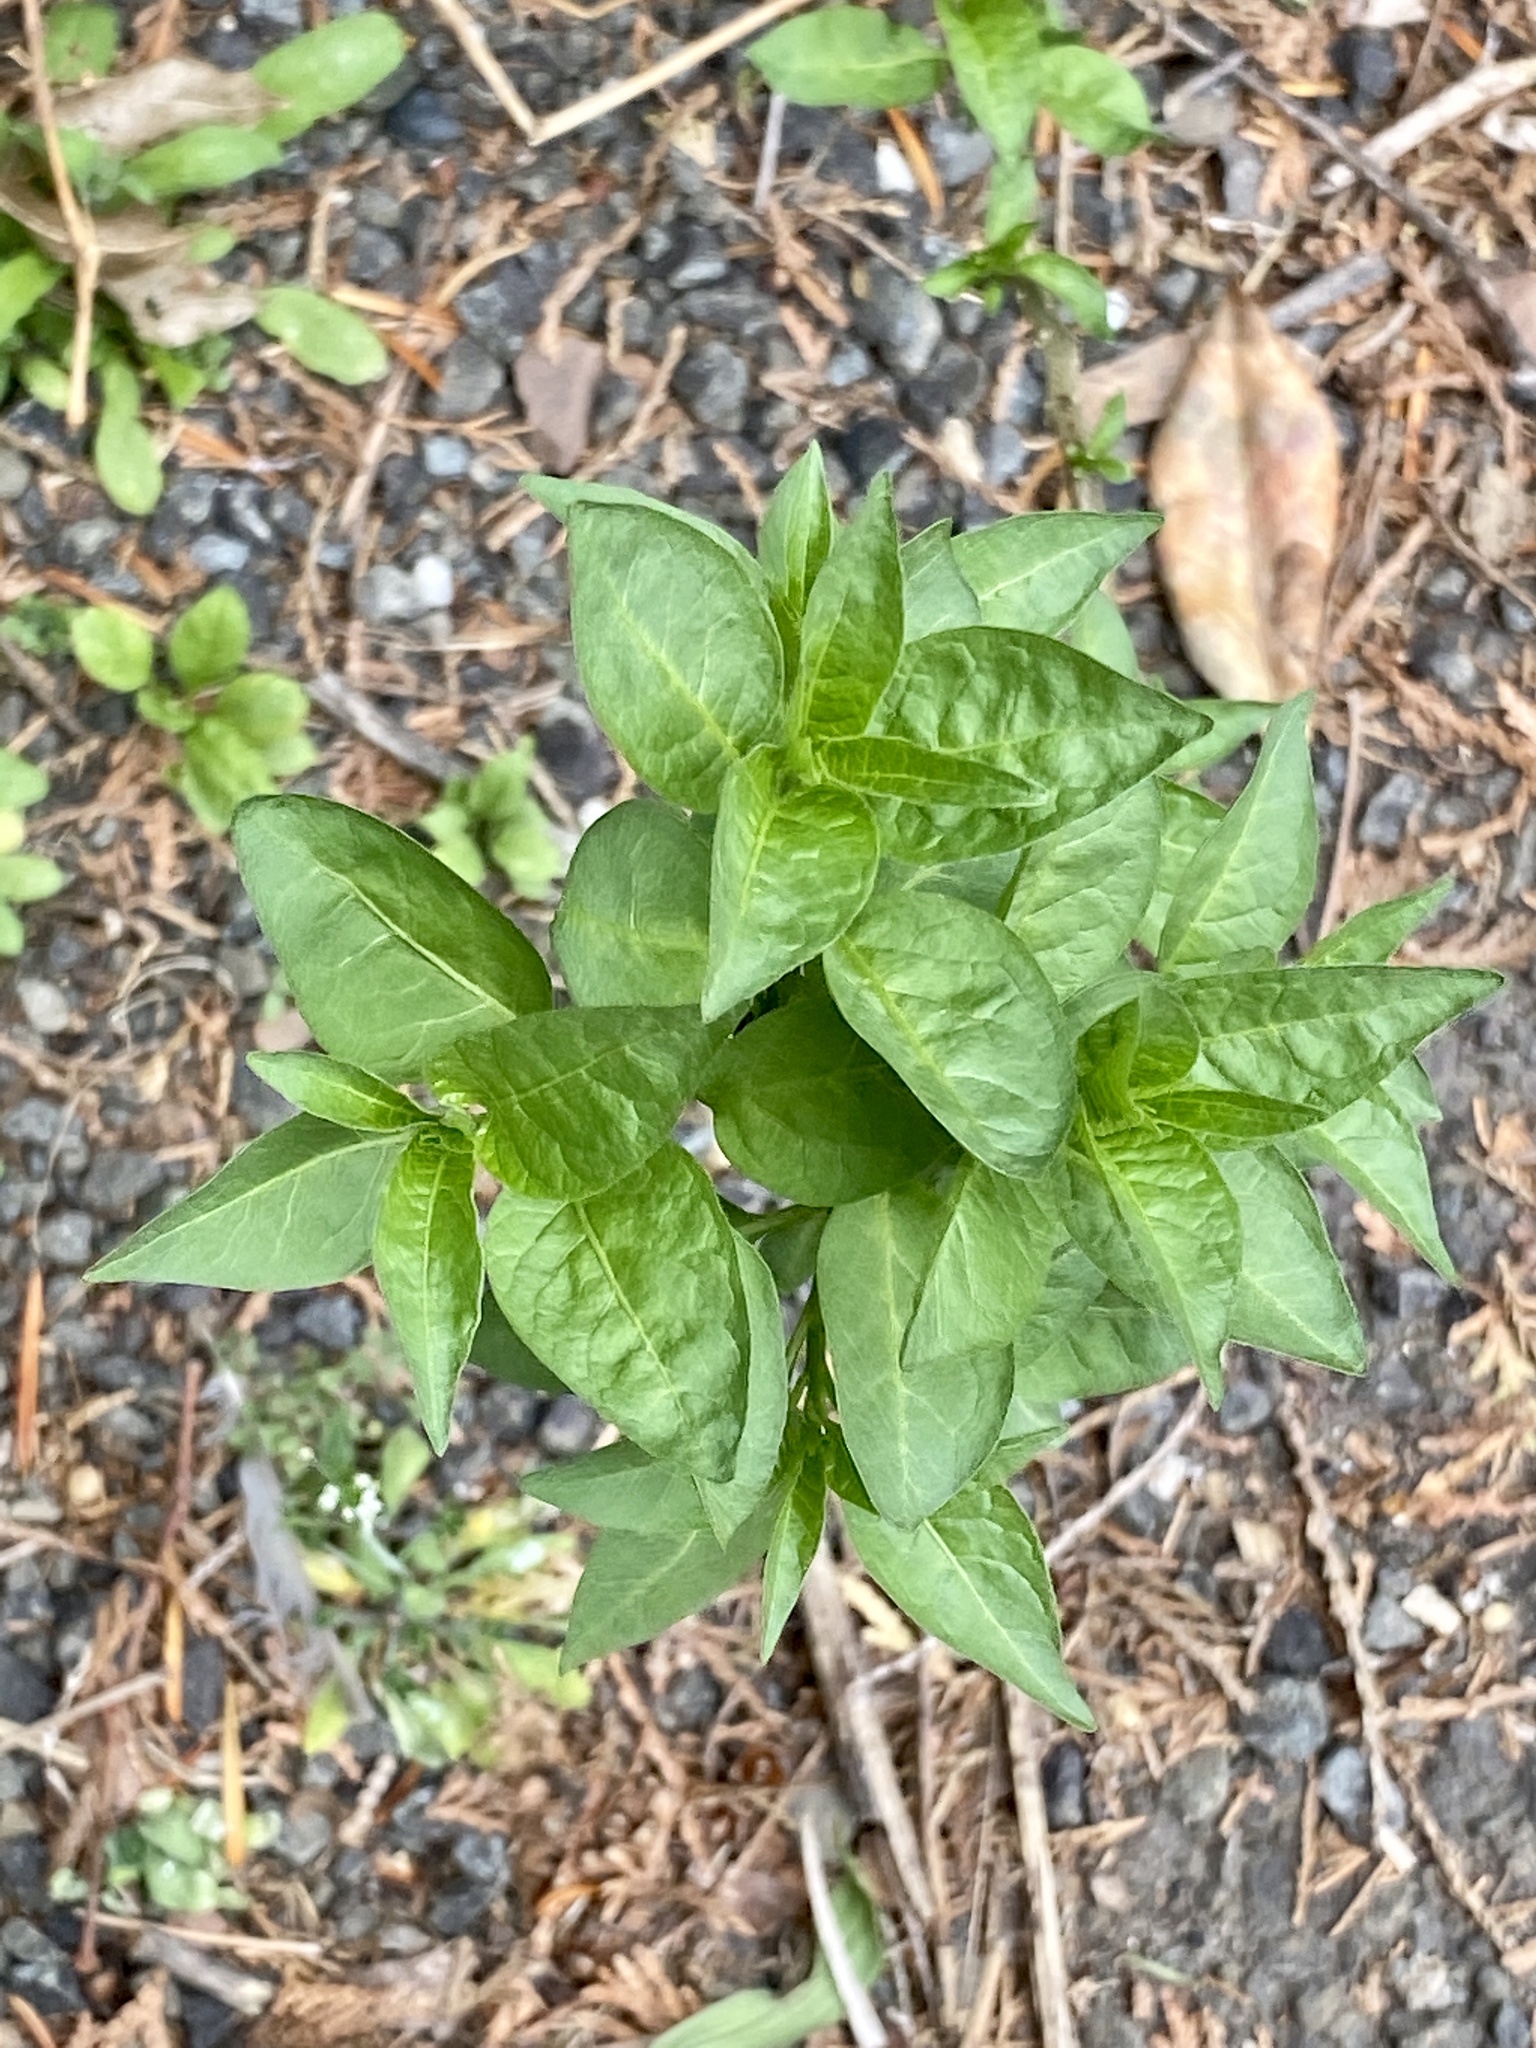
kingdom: Plantae
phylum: Tracheophyta
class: Magnoliopsida
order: Solanales
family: Solanaceae
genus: Solanum
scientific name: Solanum dulcamara
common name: Climbing nightshade
